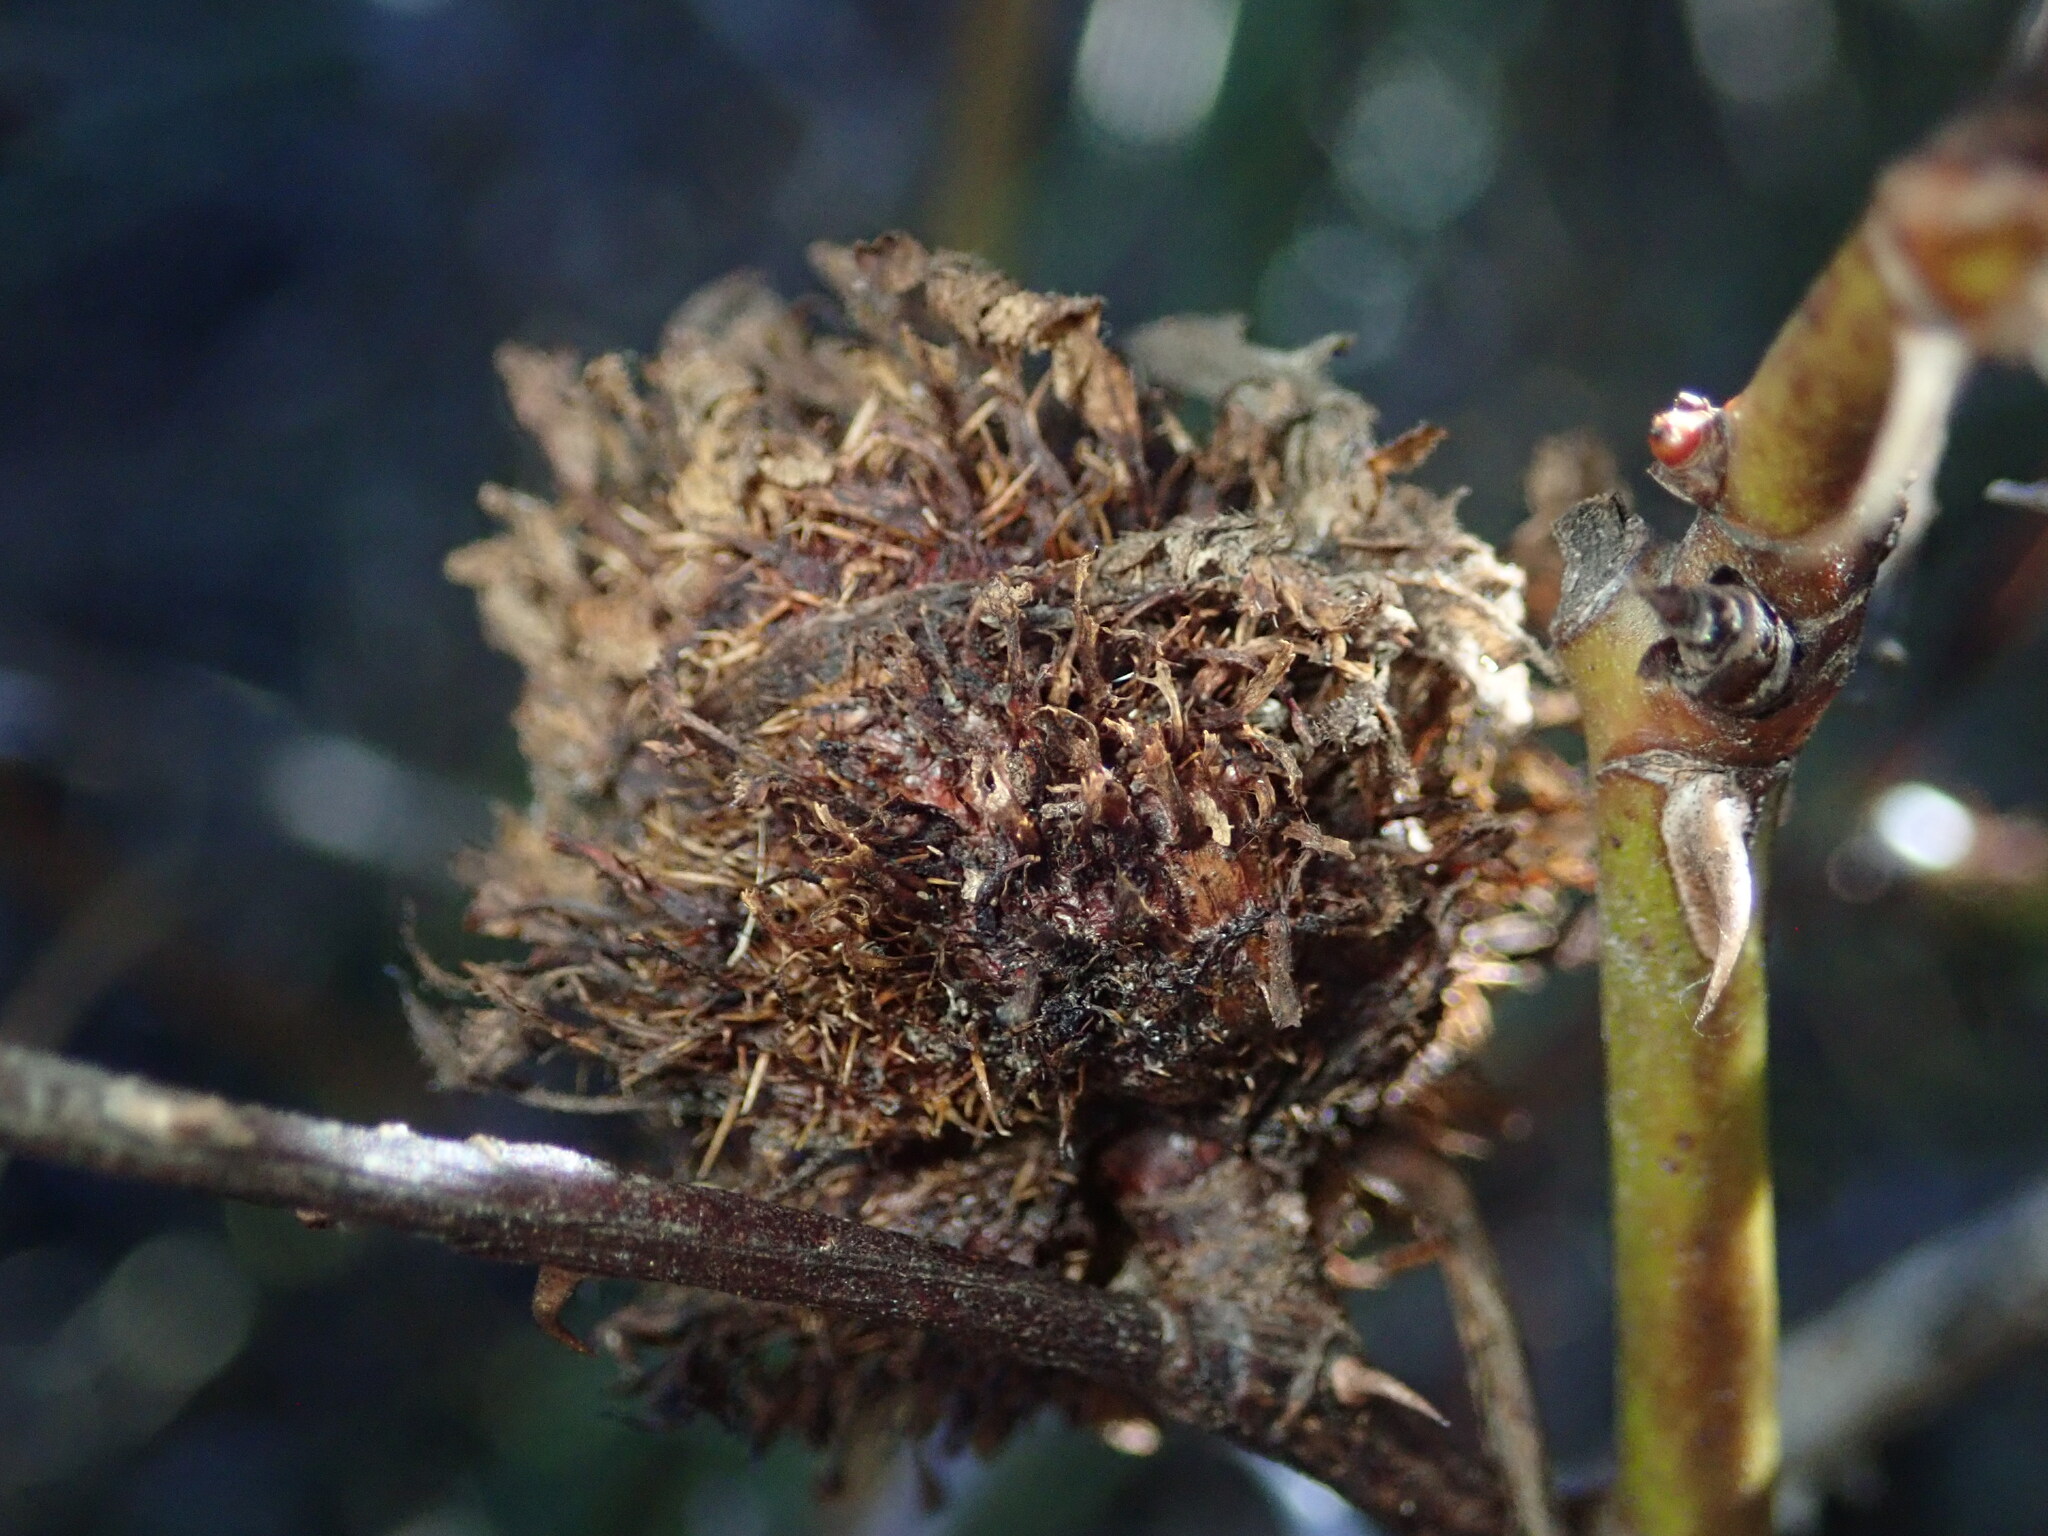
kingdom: Animalia
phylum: Arthropoda
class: Insecta
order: Hymenoptera
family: Cynipidae
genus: Diplolepis
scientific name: Diplolepis californica
